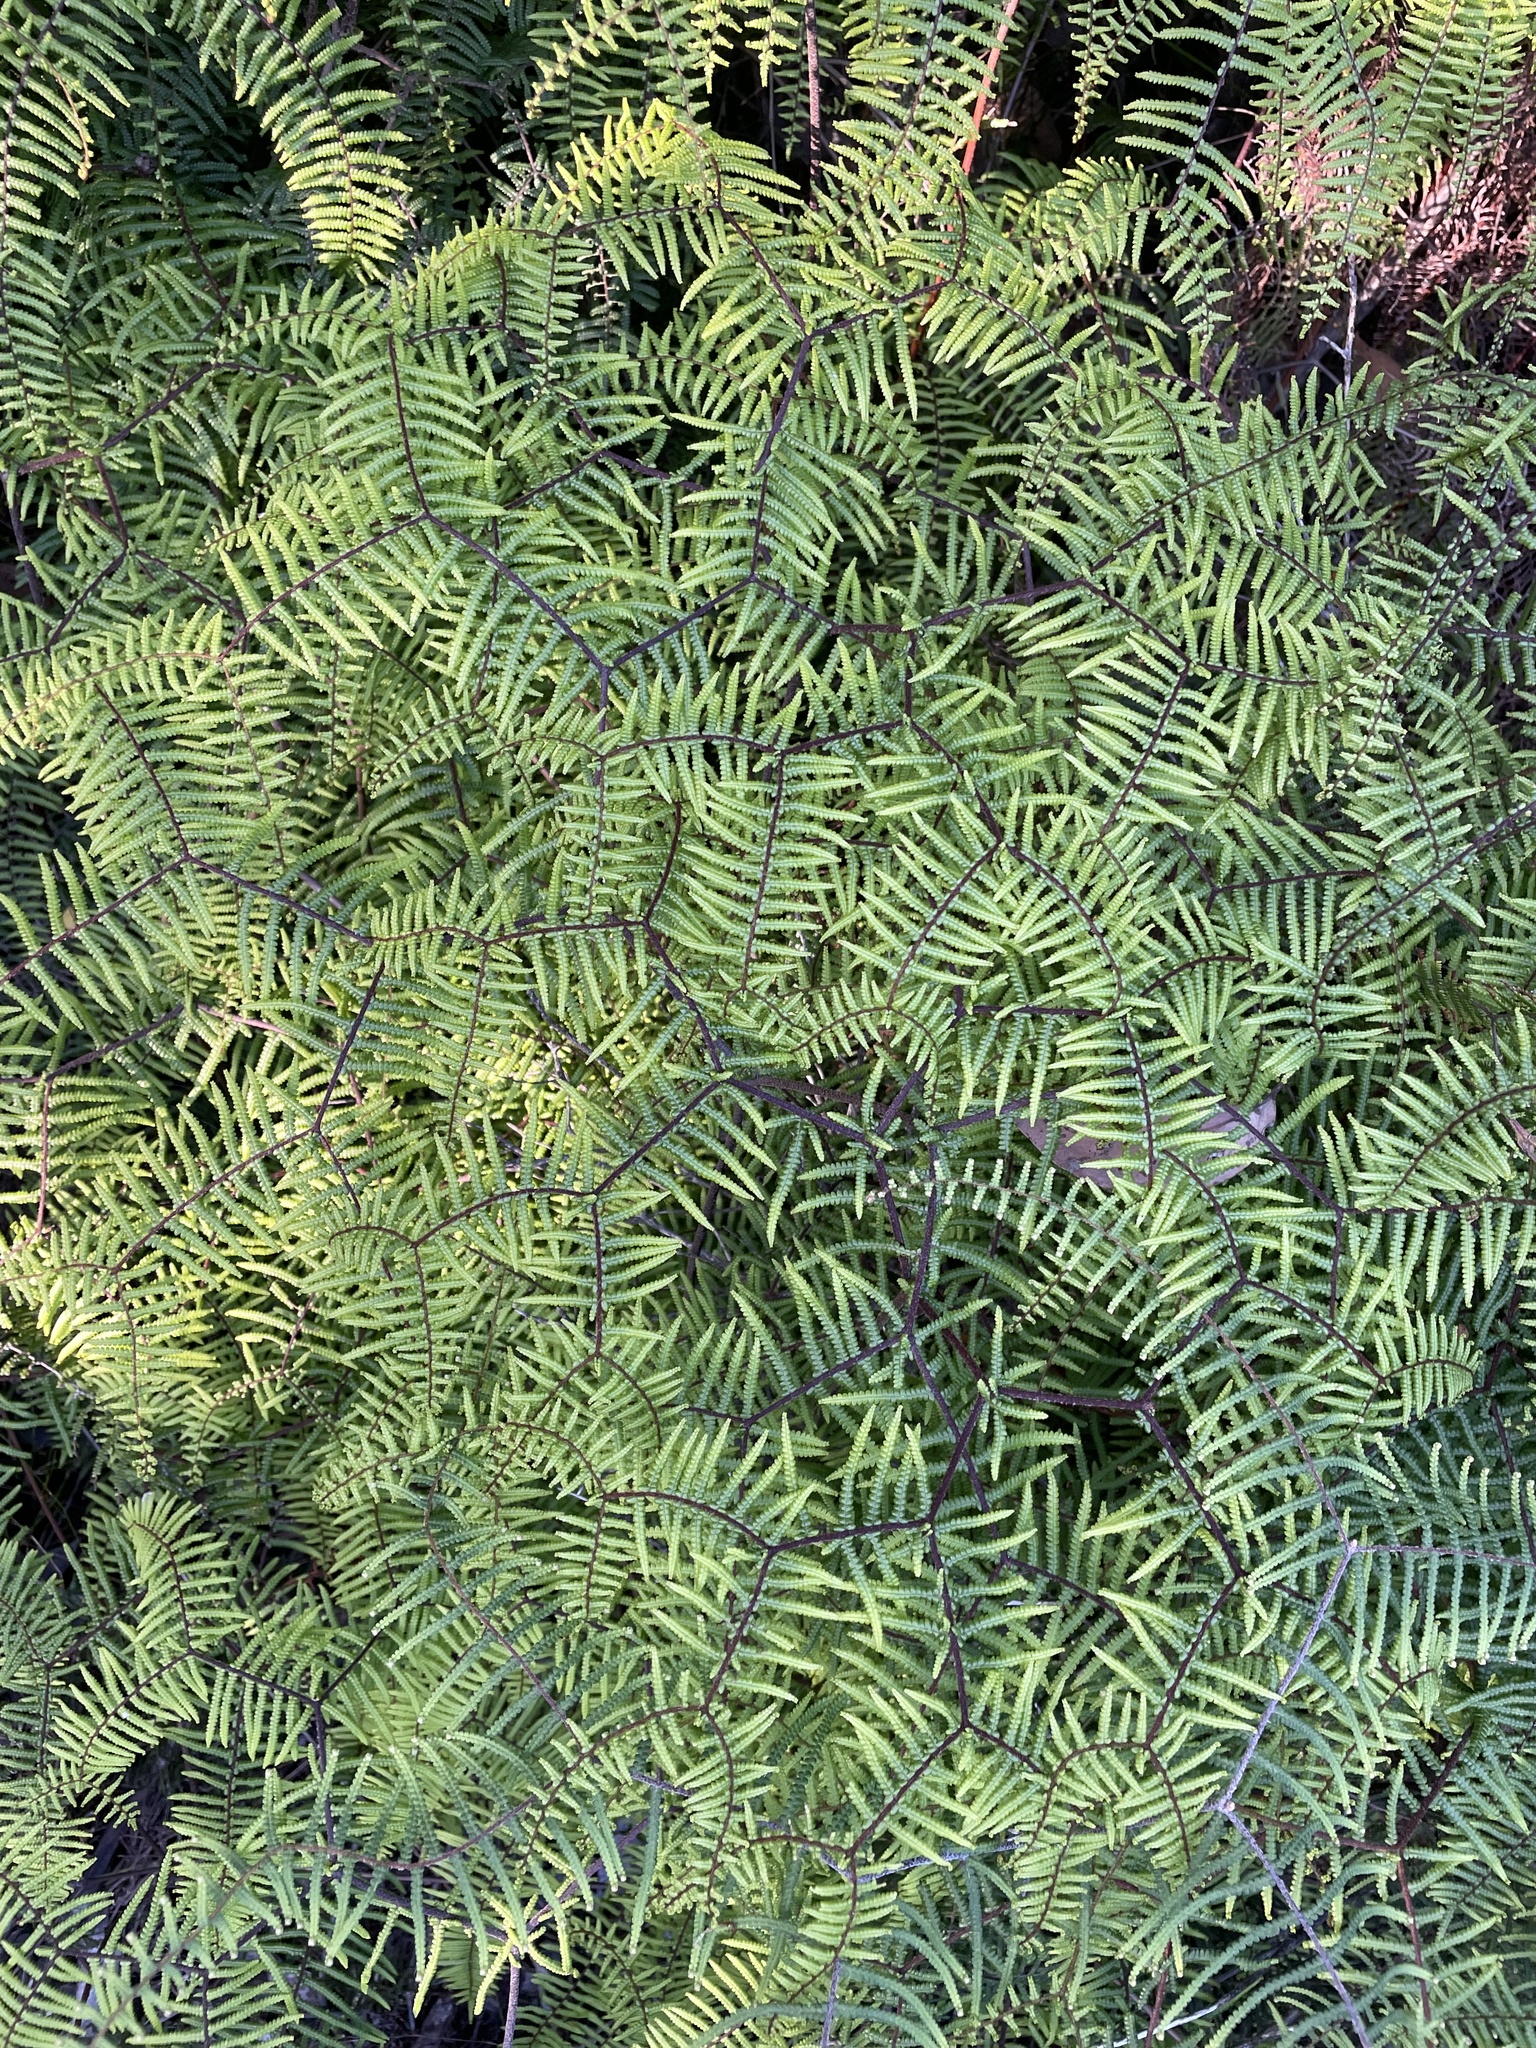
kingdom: Plantae
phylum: Tracheophyta
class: Polypodiopsida
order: Gleicheniales
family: Gleicheniaceae
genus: Gleichenia
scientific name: Gleichenia microphylla
